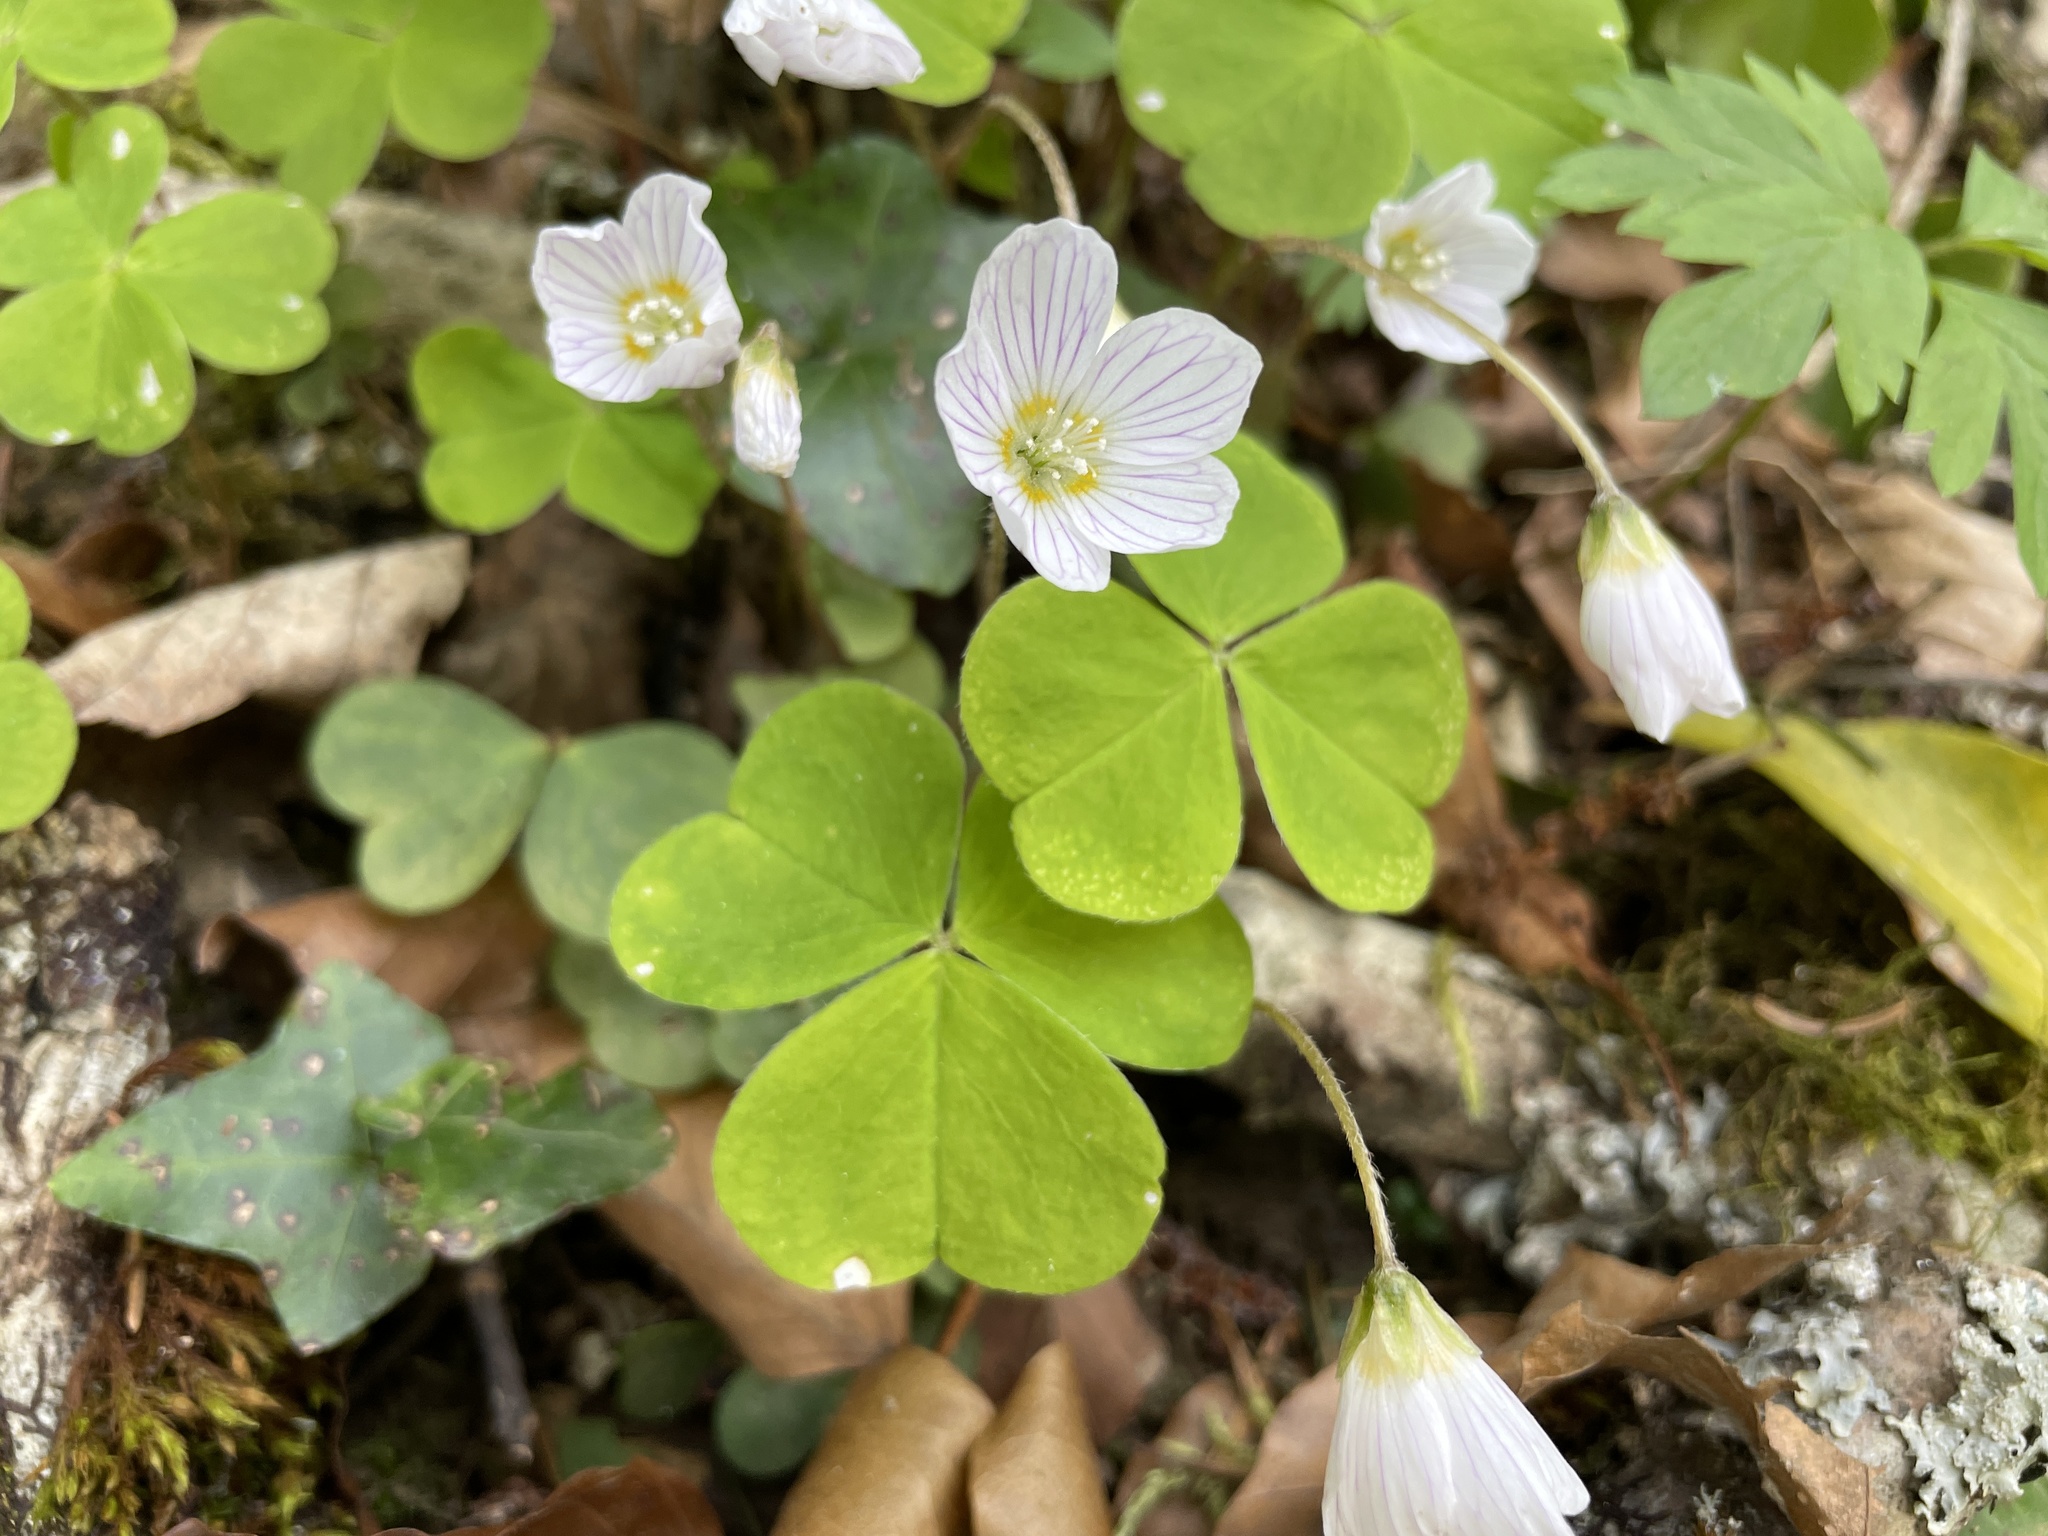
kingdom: Plantae
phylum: Tracheophyta
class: Magnoliopsida
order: Oxalidales
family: Oxalidaceae
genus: Oxalis
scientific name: Oxalis acetosella
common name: Wood-sorrel
